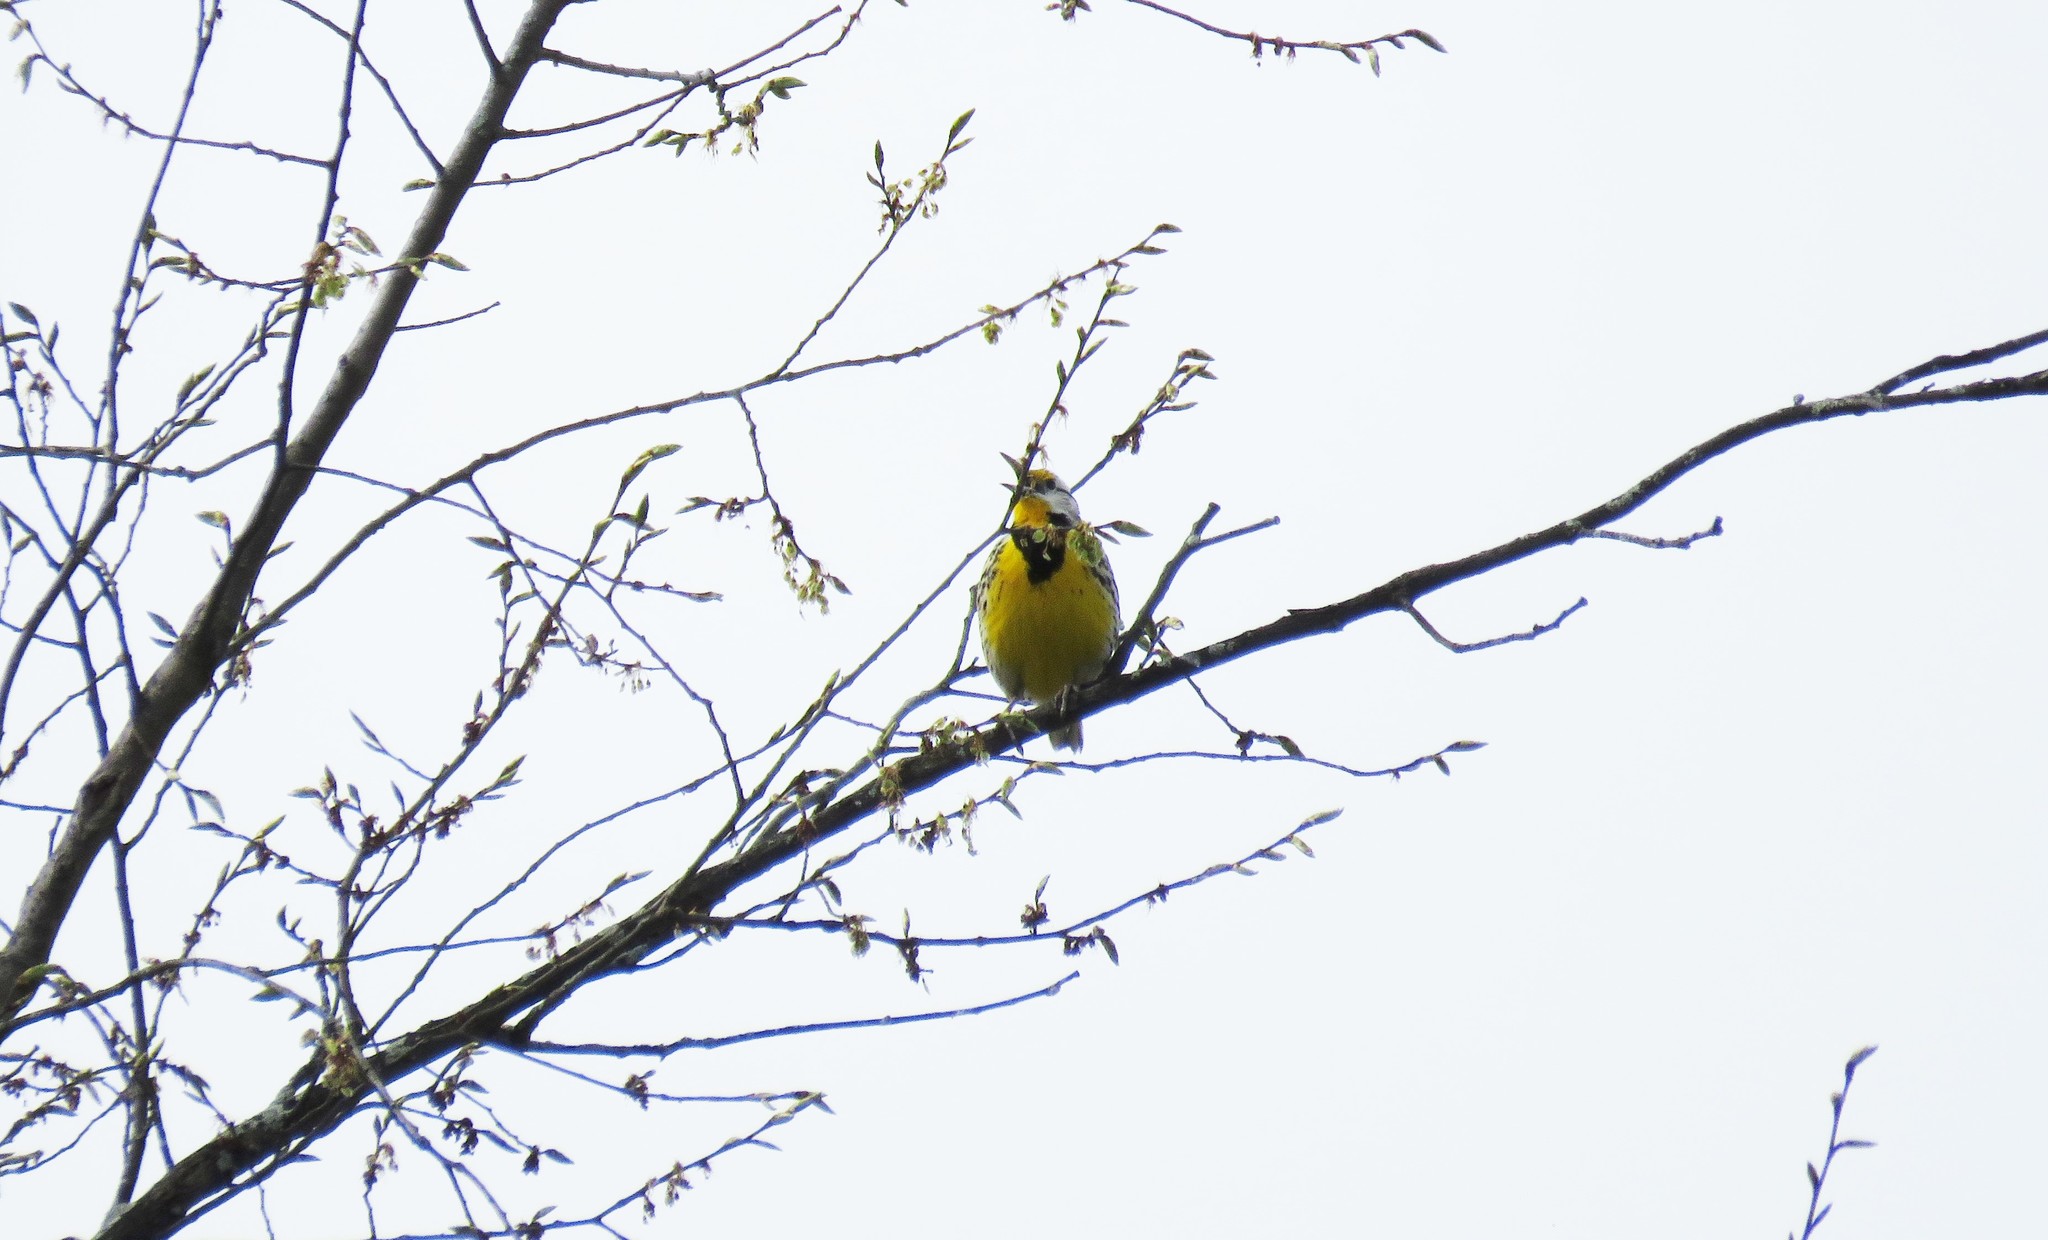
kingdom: Animalia
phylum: Chordata
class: Aves
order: Passeriformes
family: Icteridae
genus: Sturnella
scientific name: Sturnella magna
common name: Eastern meadowlark
